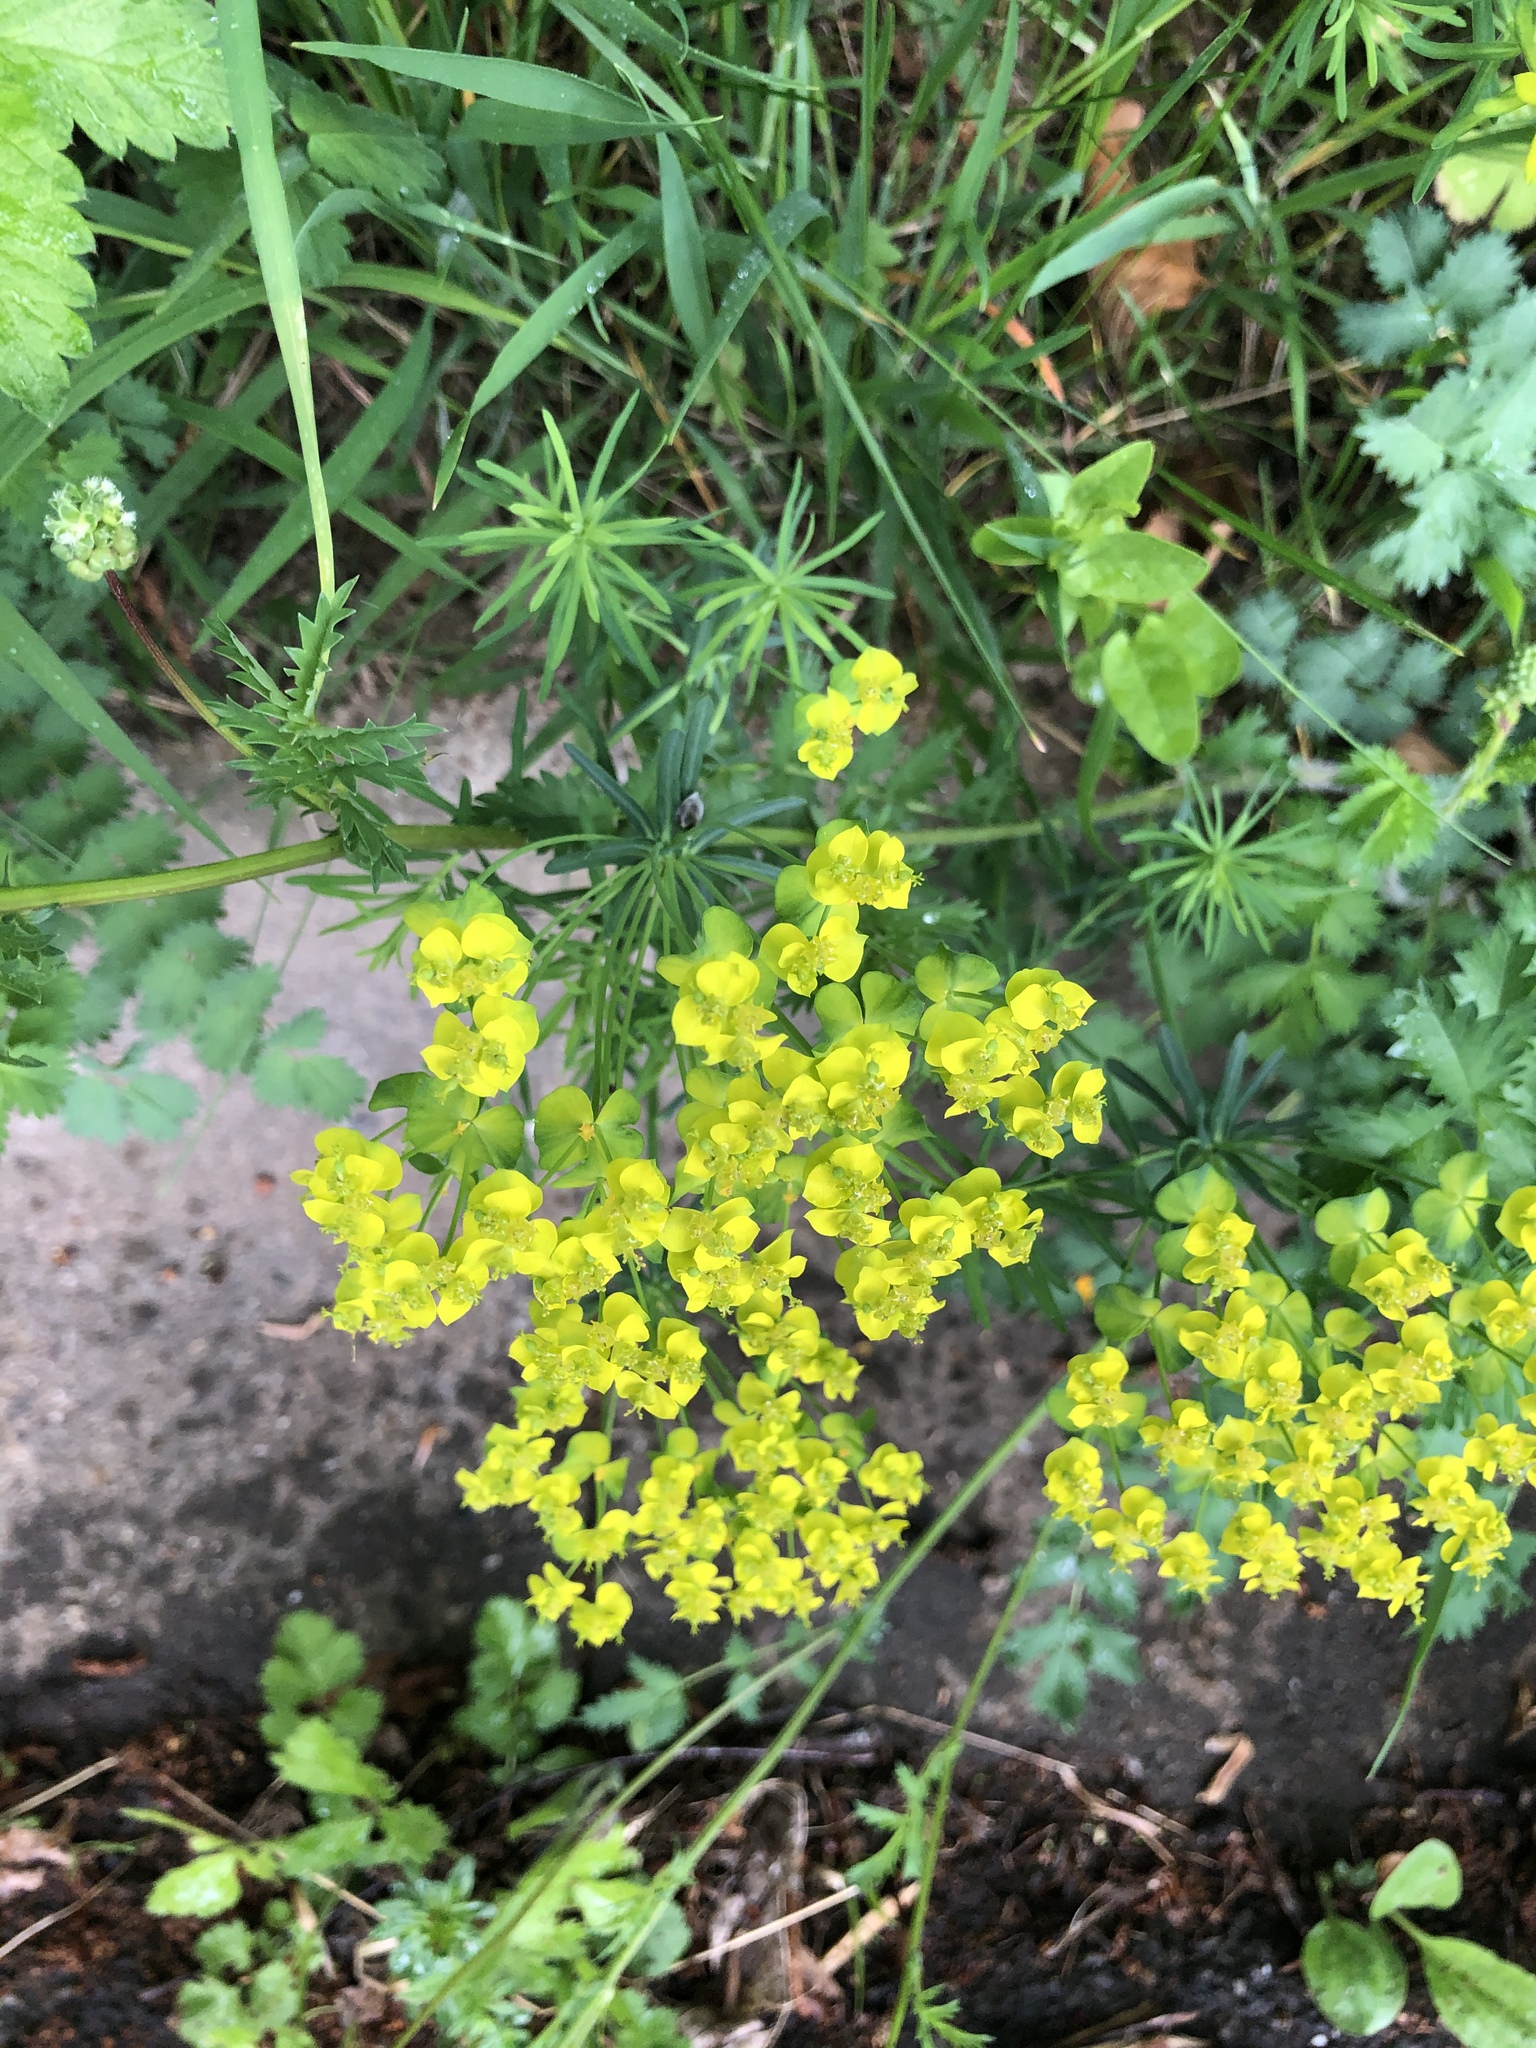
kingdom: Plantae
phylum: Tracheophyta
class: Magnoliopsida
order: Malpighiales
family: Euphorbiaceae
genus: Euphorbia
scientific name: Euphorbia cyparissias
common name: Cypress spurge
